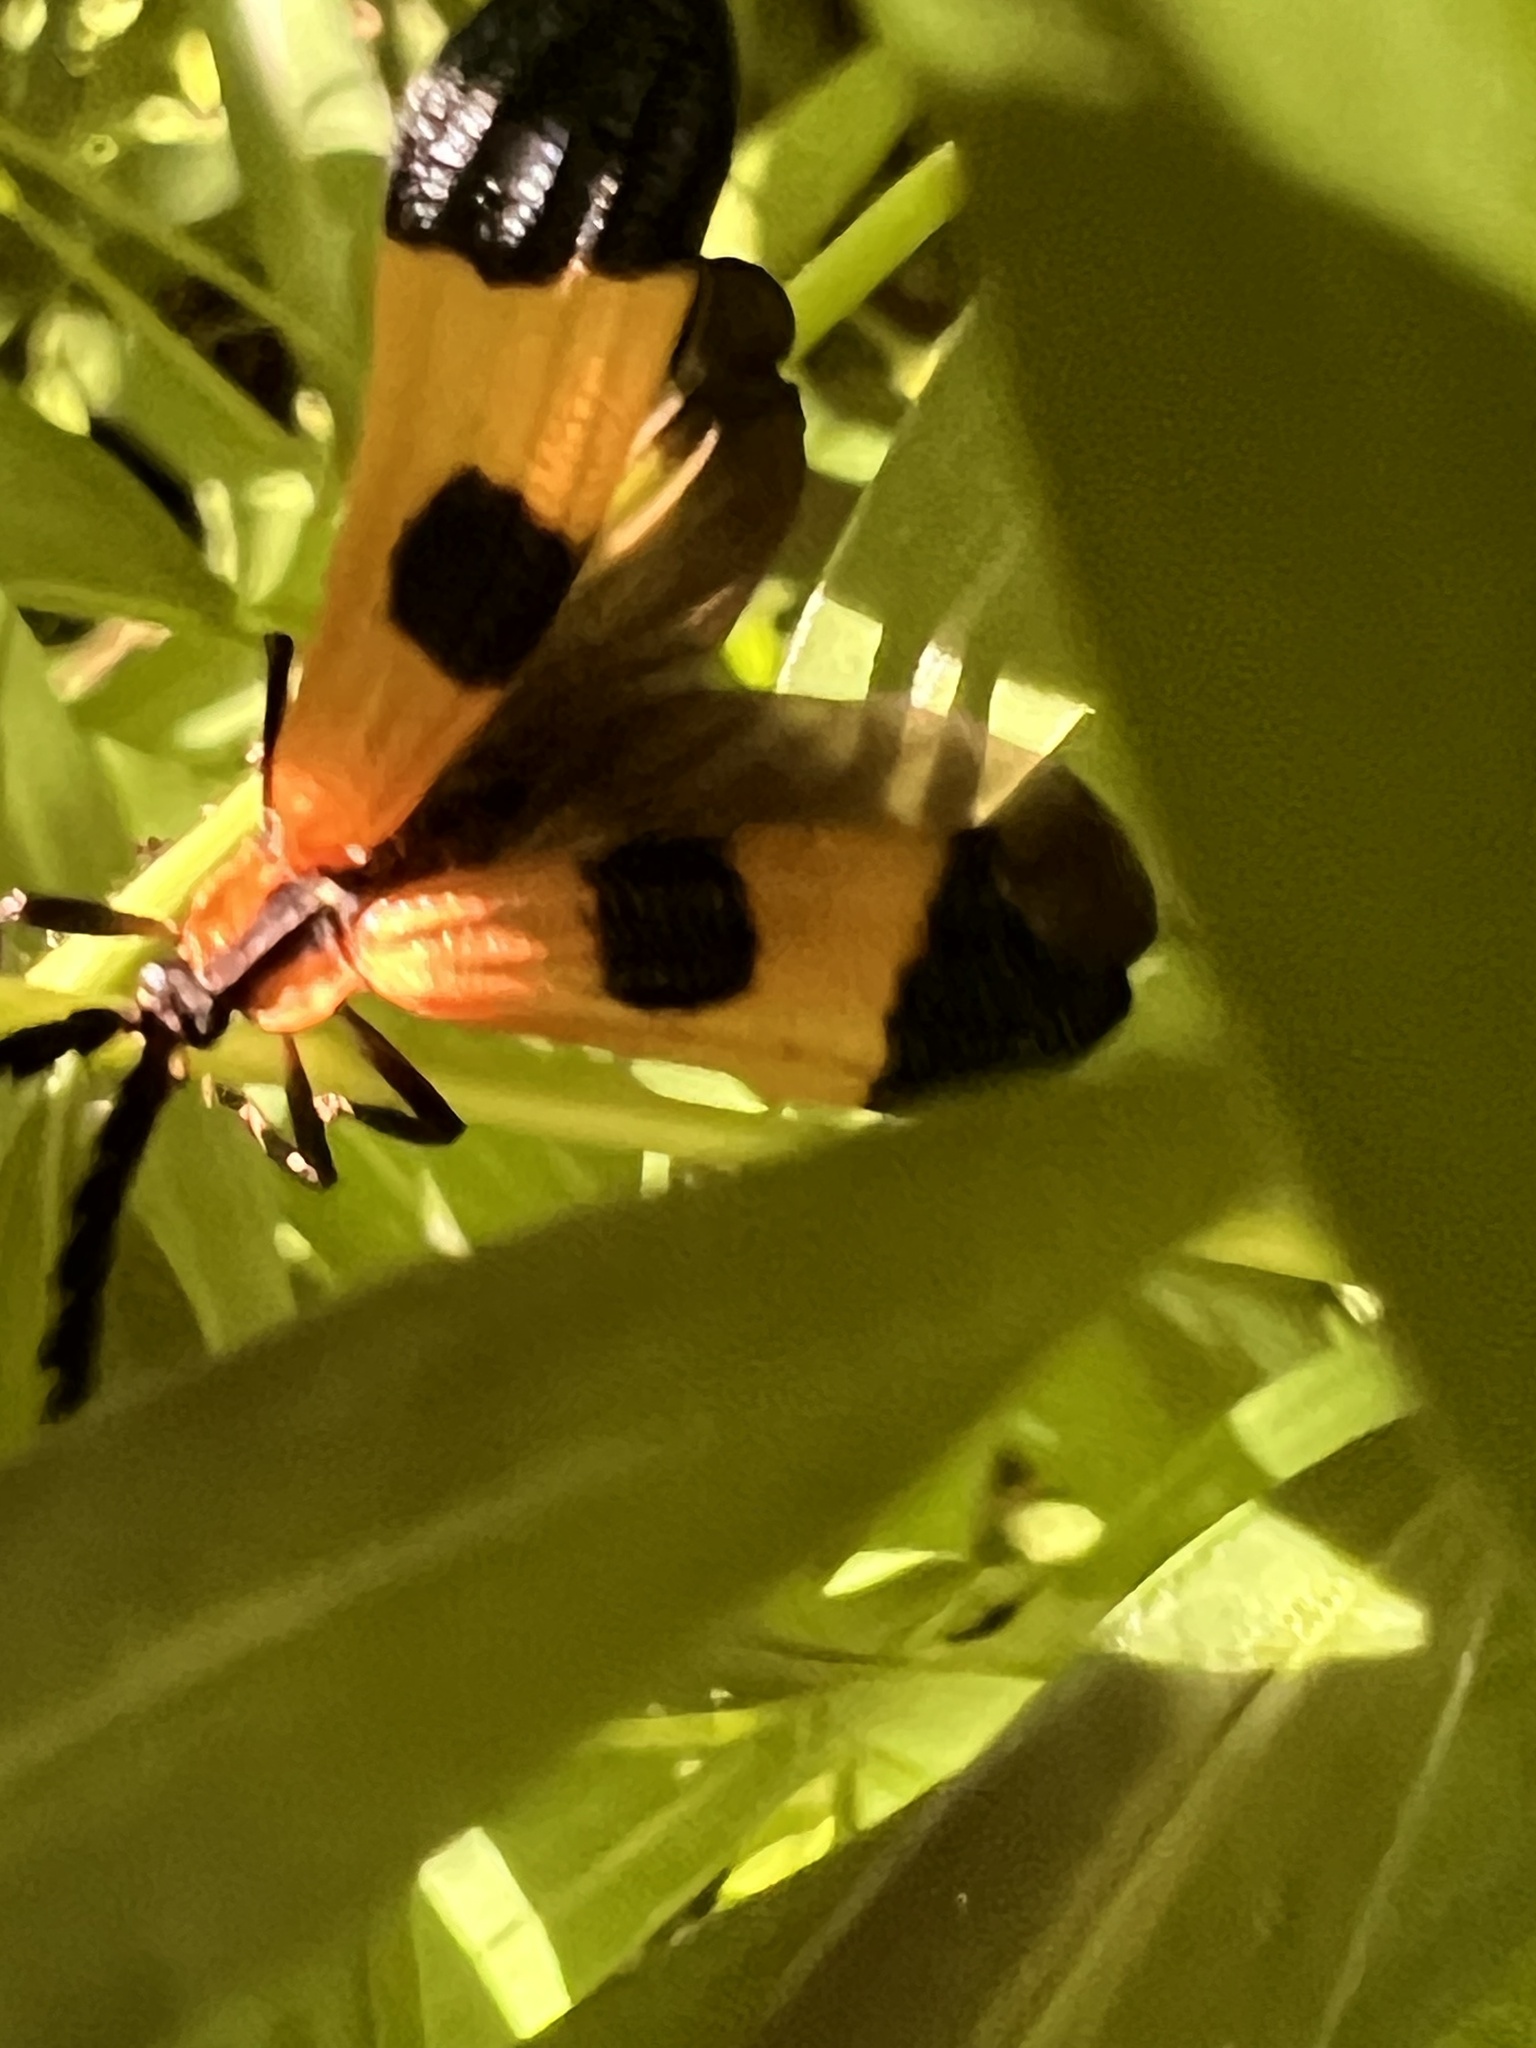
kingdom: Animalia
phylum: Arthropoda
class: Insecta
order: Coleoptera
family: Lycidae
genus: Calopteron
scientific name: Calopteron terminale
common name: End band net-winged beetle
